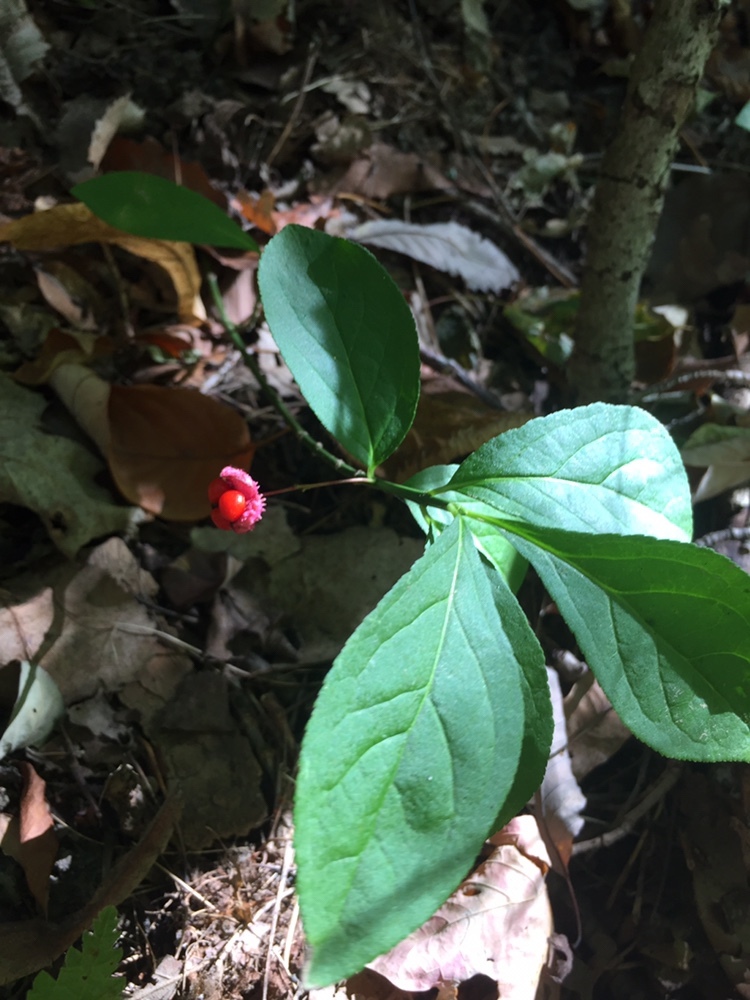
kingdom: Plantae
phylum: Tracheophyta
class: Magnoliopsida
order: Celastrales
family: Celastraceae
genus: Euonymus
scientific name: Euonymus obovatus
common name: Running strawberry-bush
